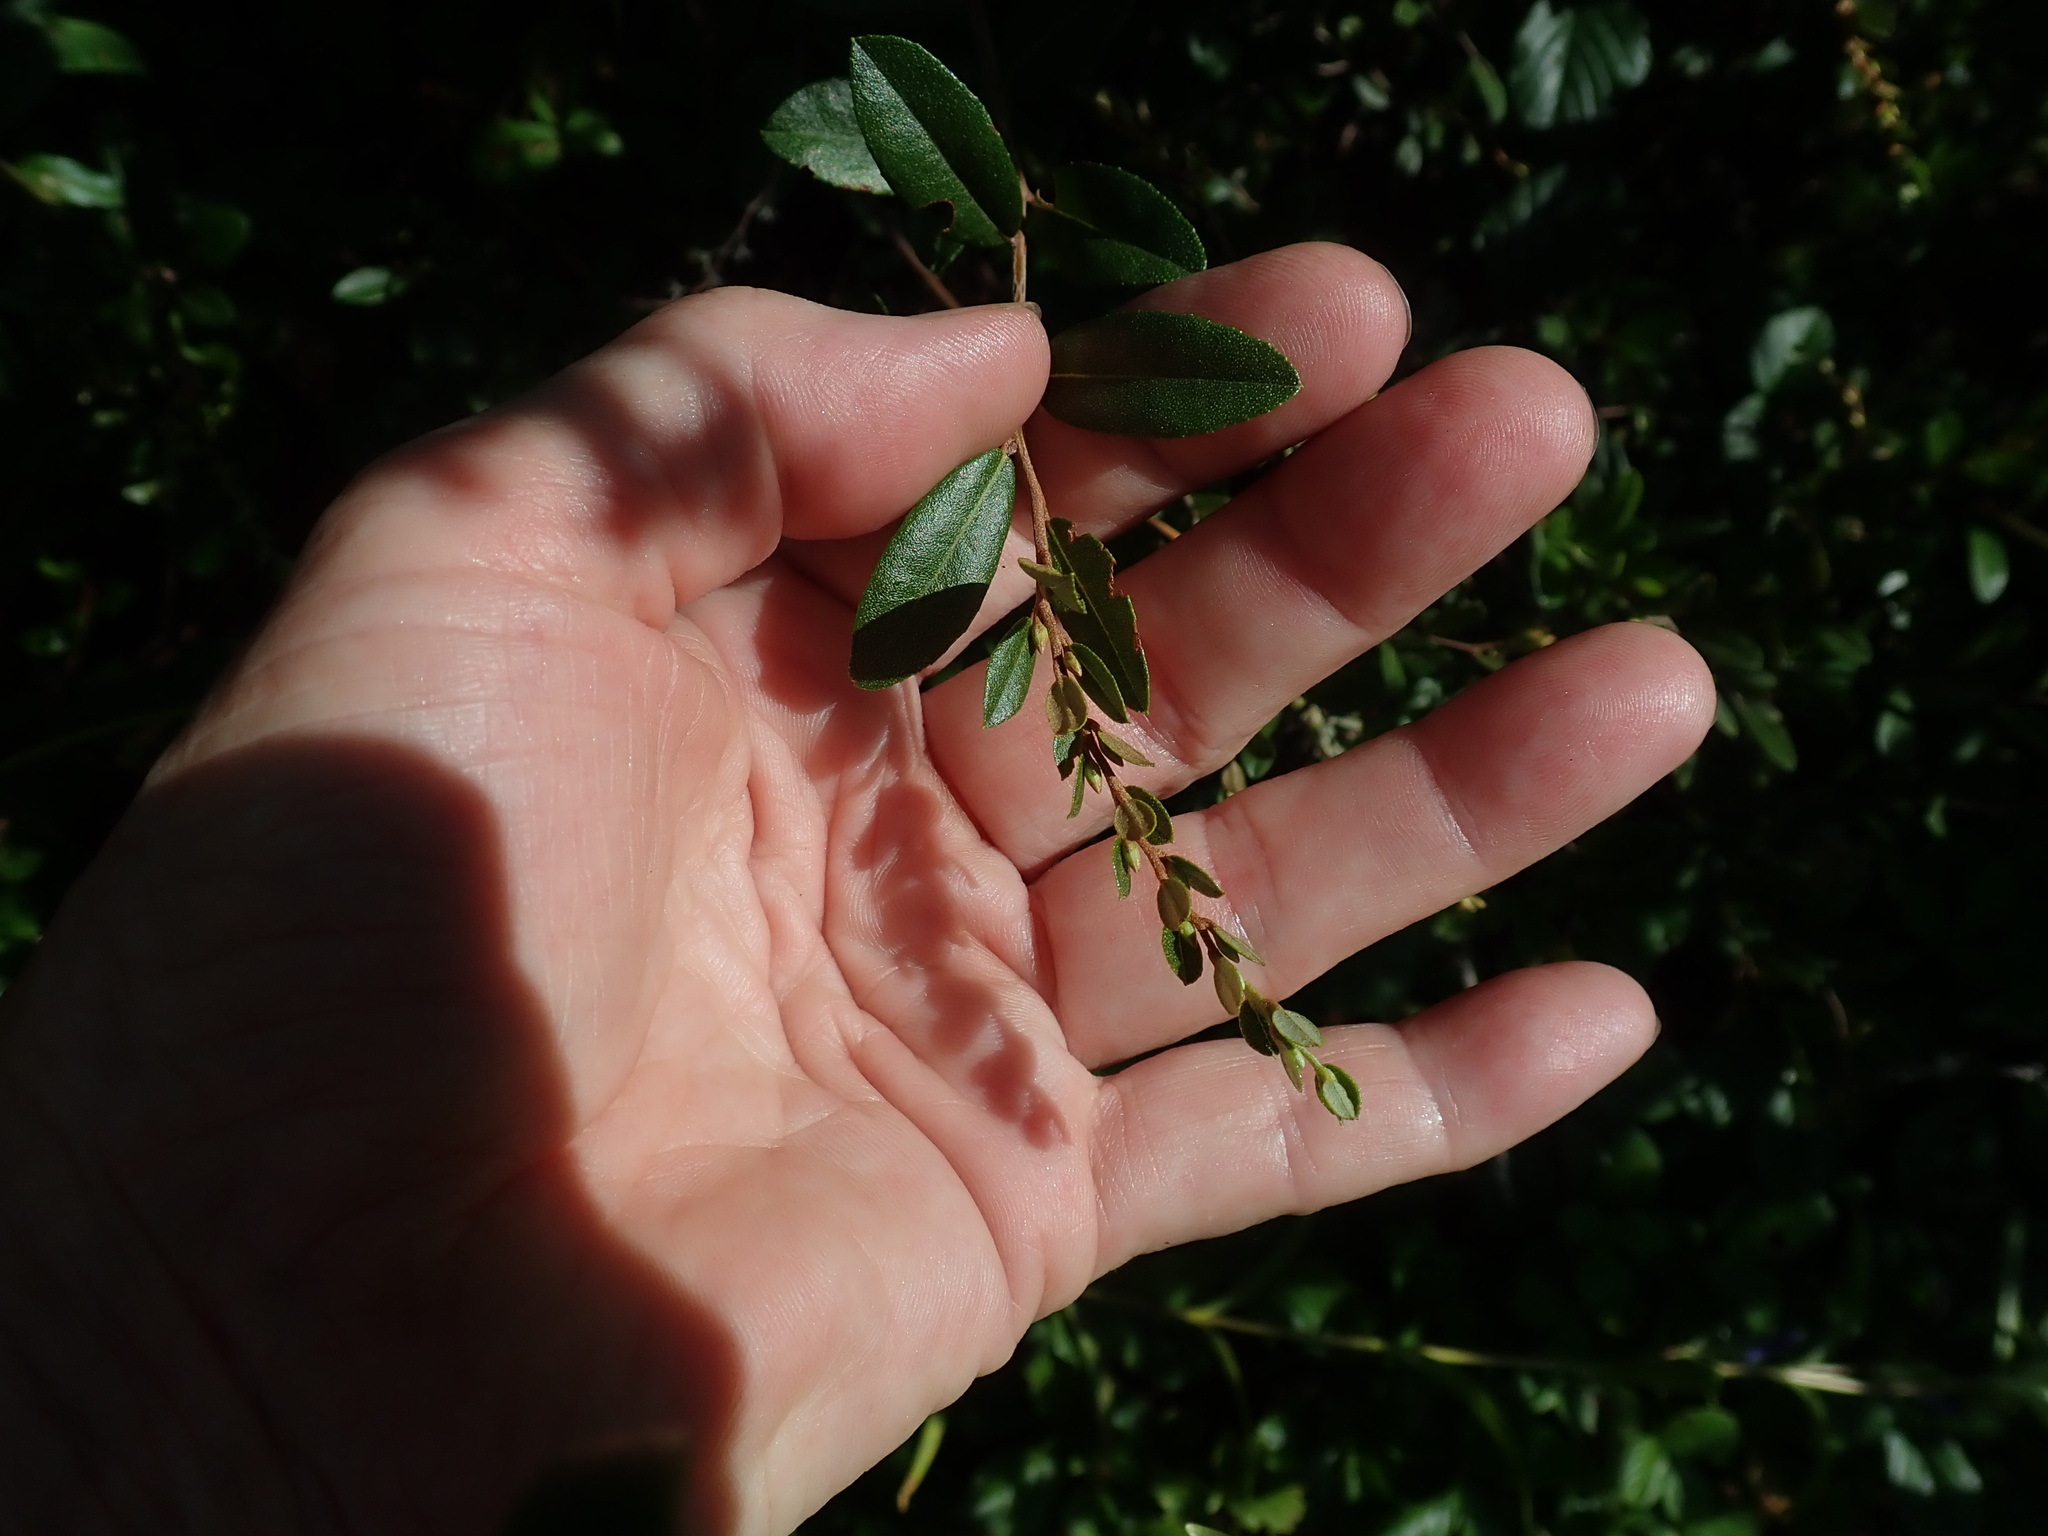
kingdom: Plantae
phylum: Tracheophyta
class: Magnoliopsida
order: Ericales
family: Ericaceae
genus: Chamaedaphne
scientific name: Chamaedaphne calyculata
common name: Leatherleaf
